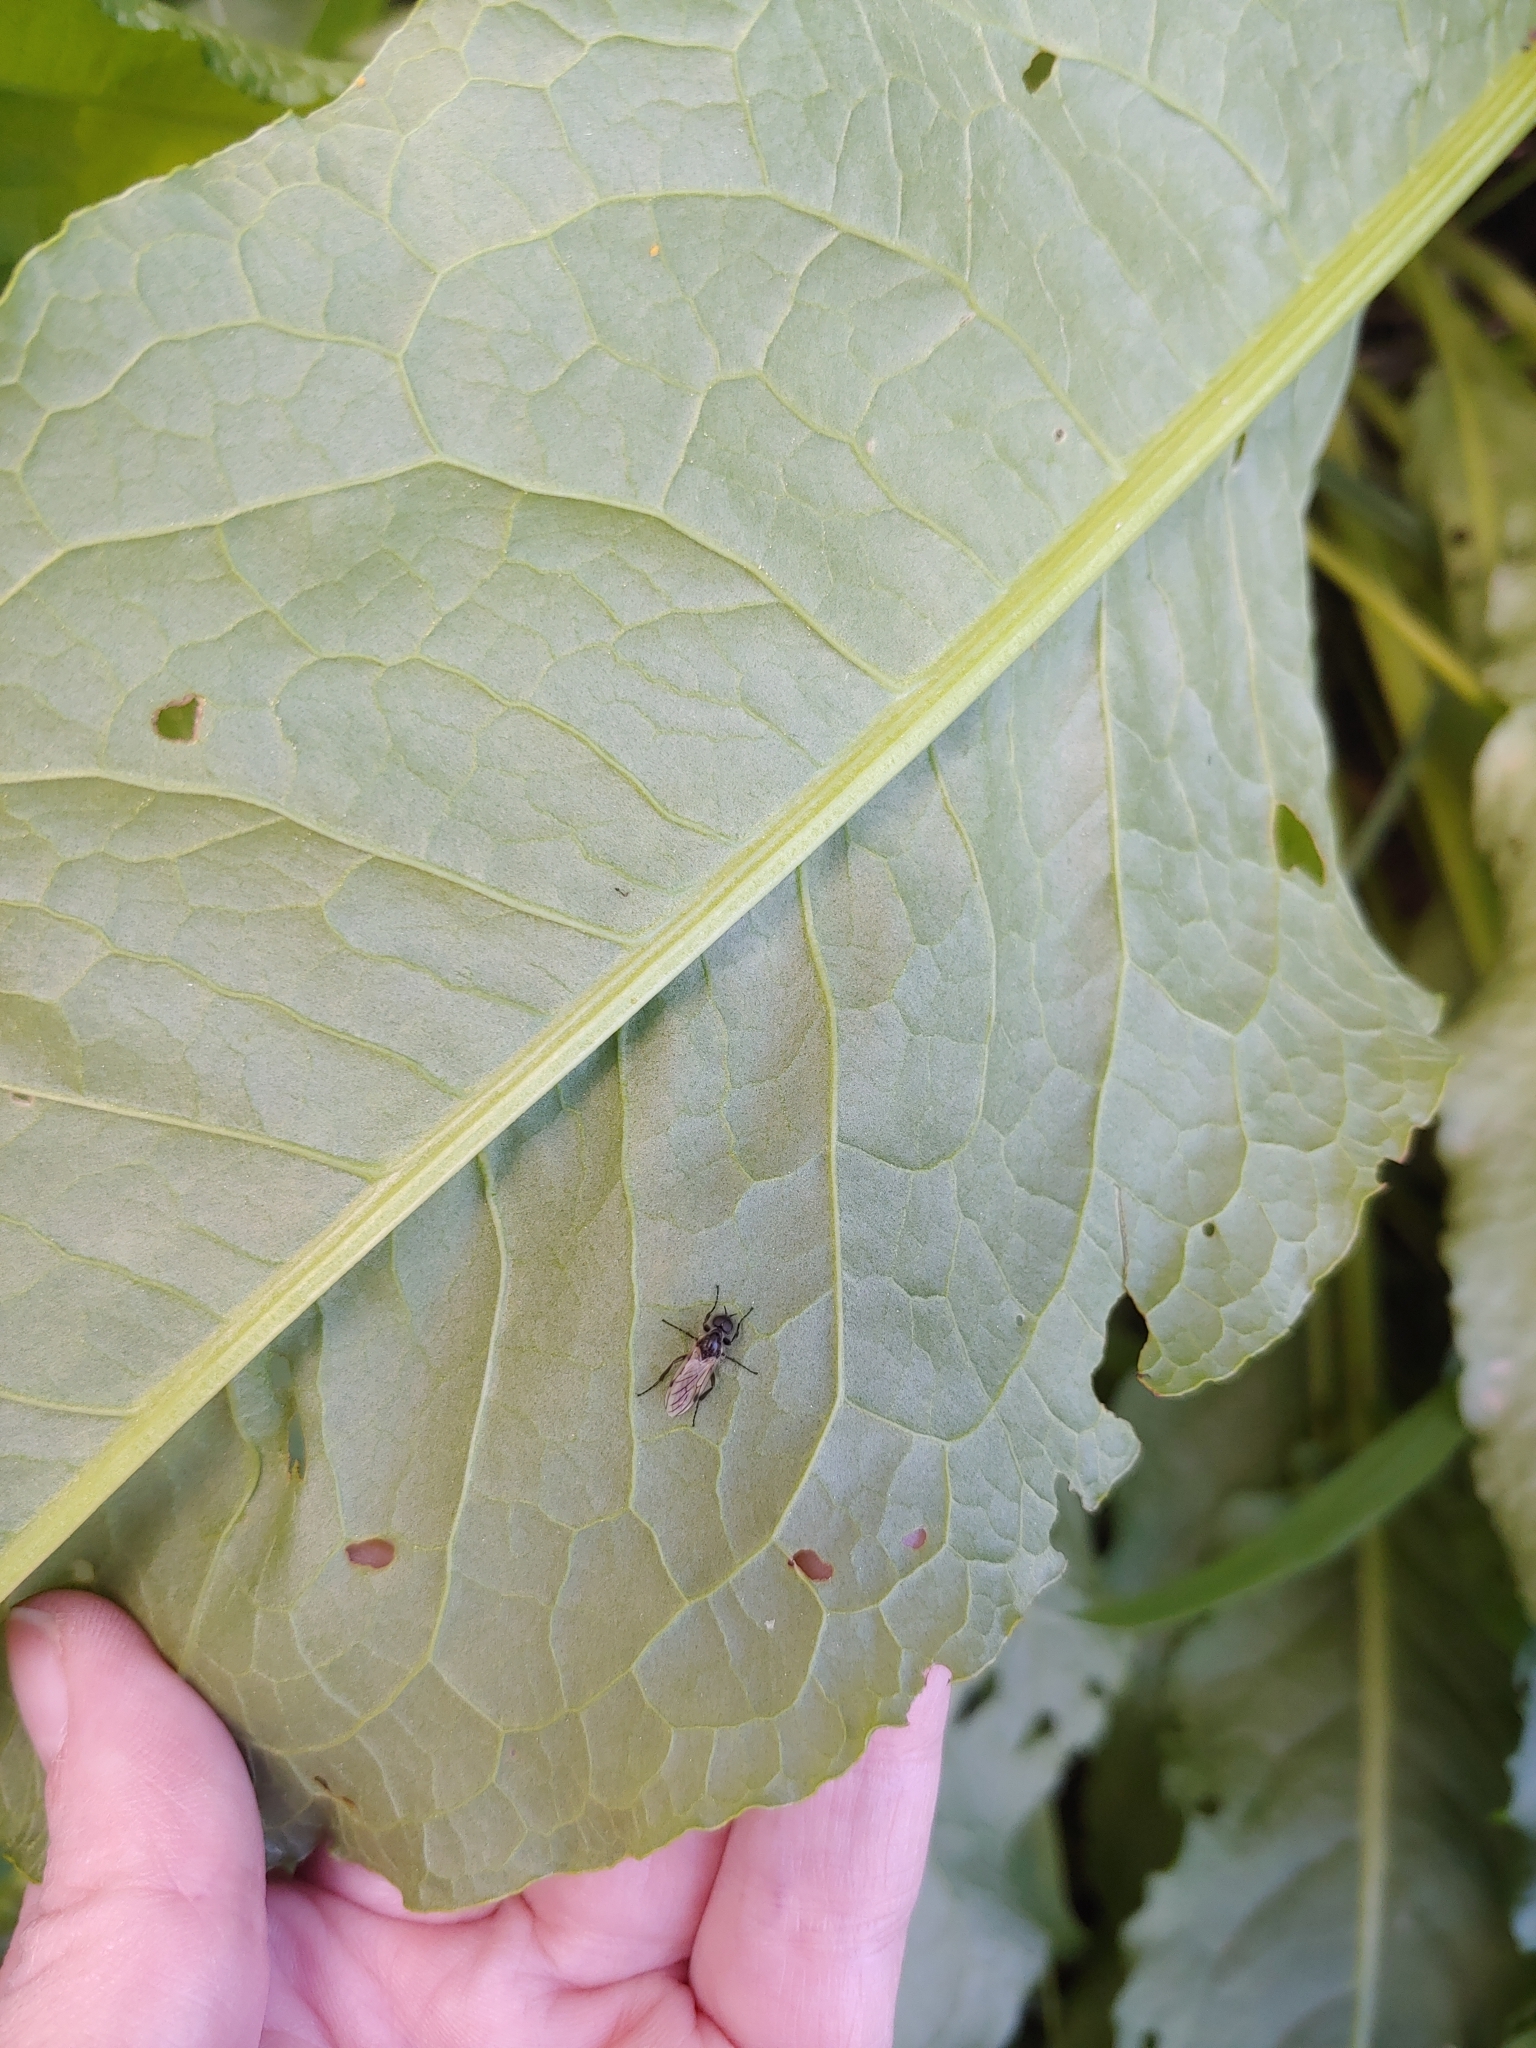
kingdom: Animalia
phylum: Arthropoda
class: Insecta
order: Diptera
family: Bibionidae
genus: Bibio
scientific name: Bibio albipennis
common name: White-winged march fly
